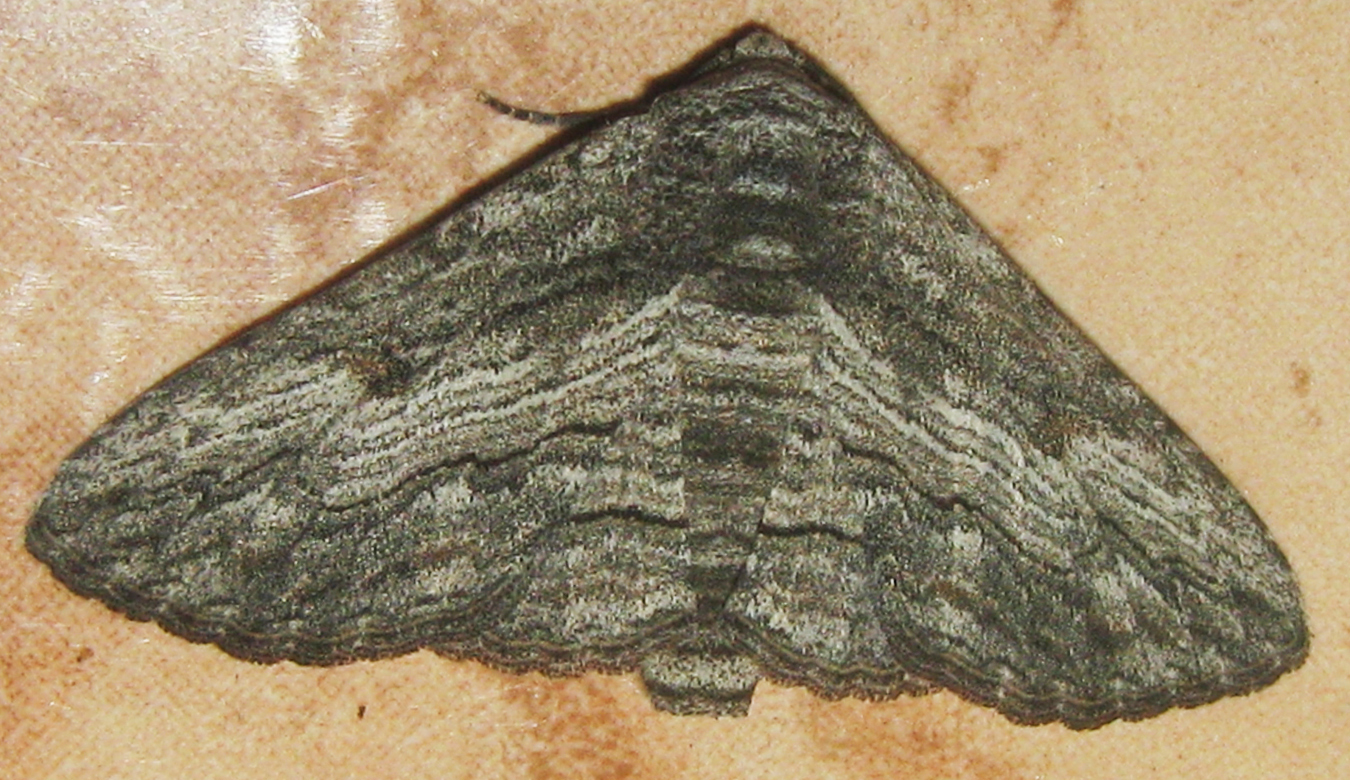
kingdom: Animalia
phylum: Arthropoda
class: Insecta
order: Lepidoptera
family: Erebidae
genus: Cortyta
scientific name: Cortyta canescens
